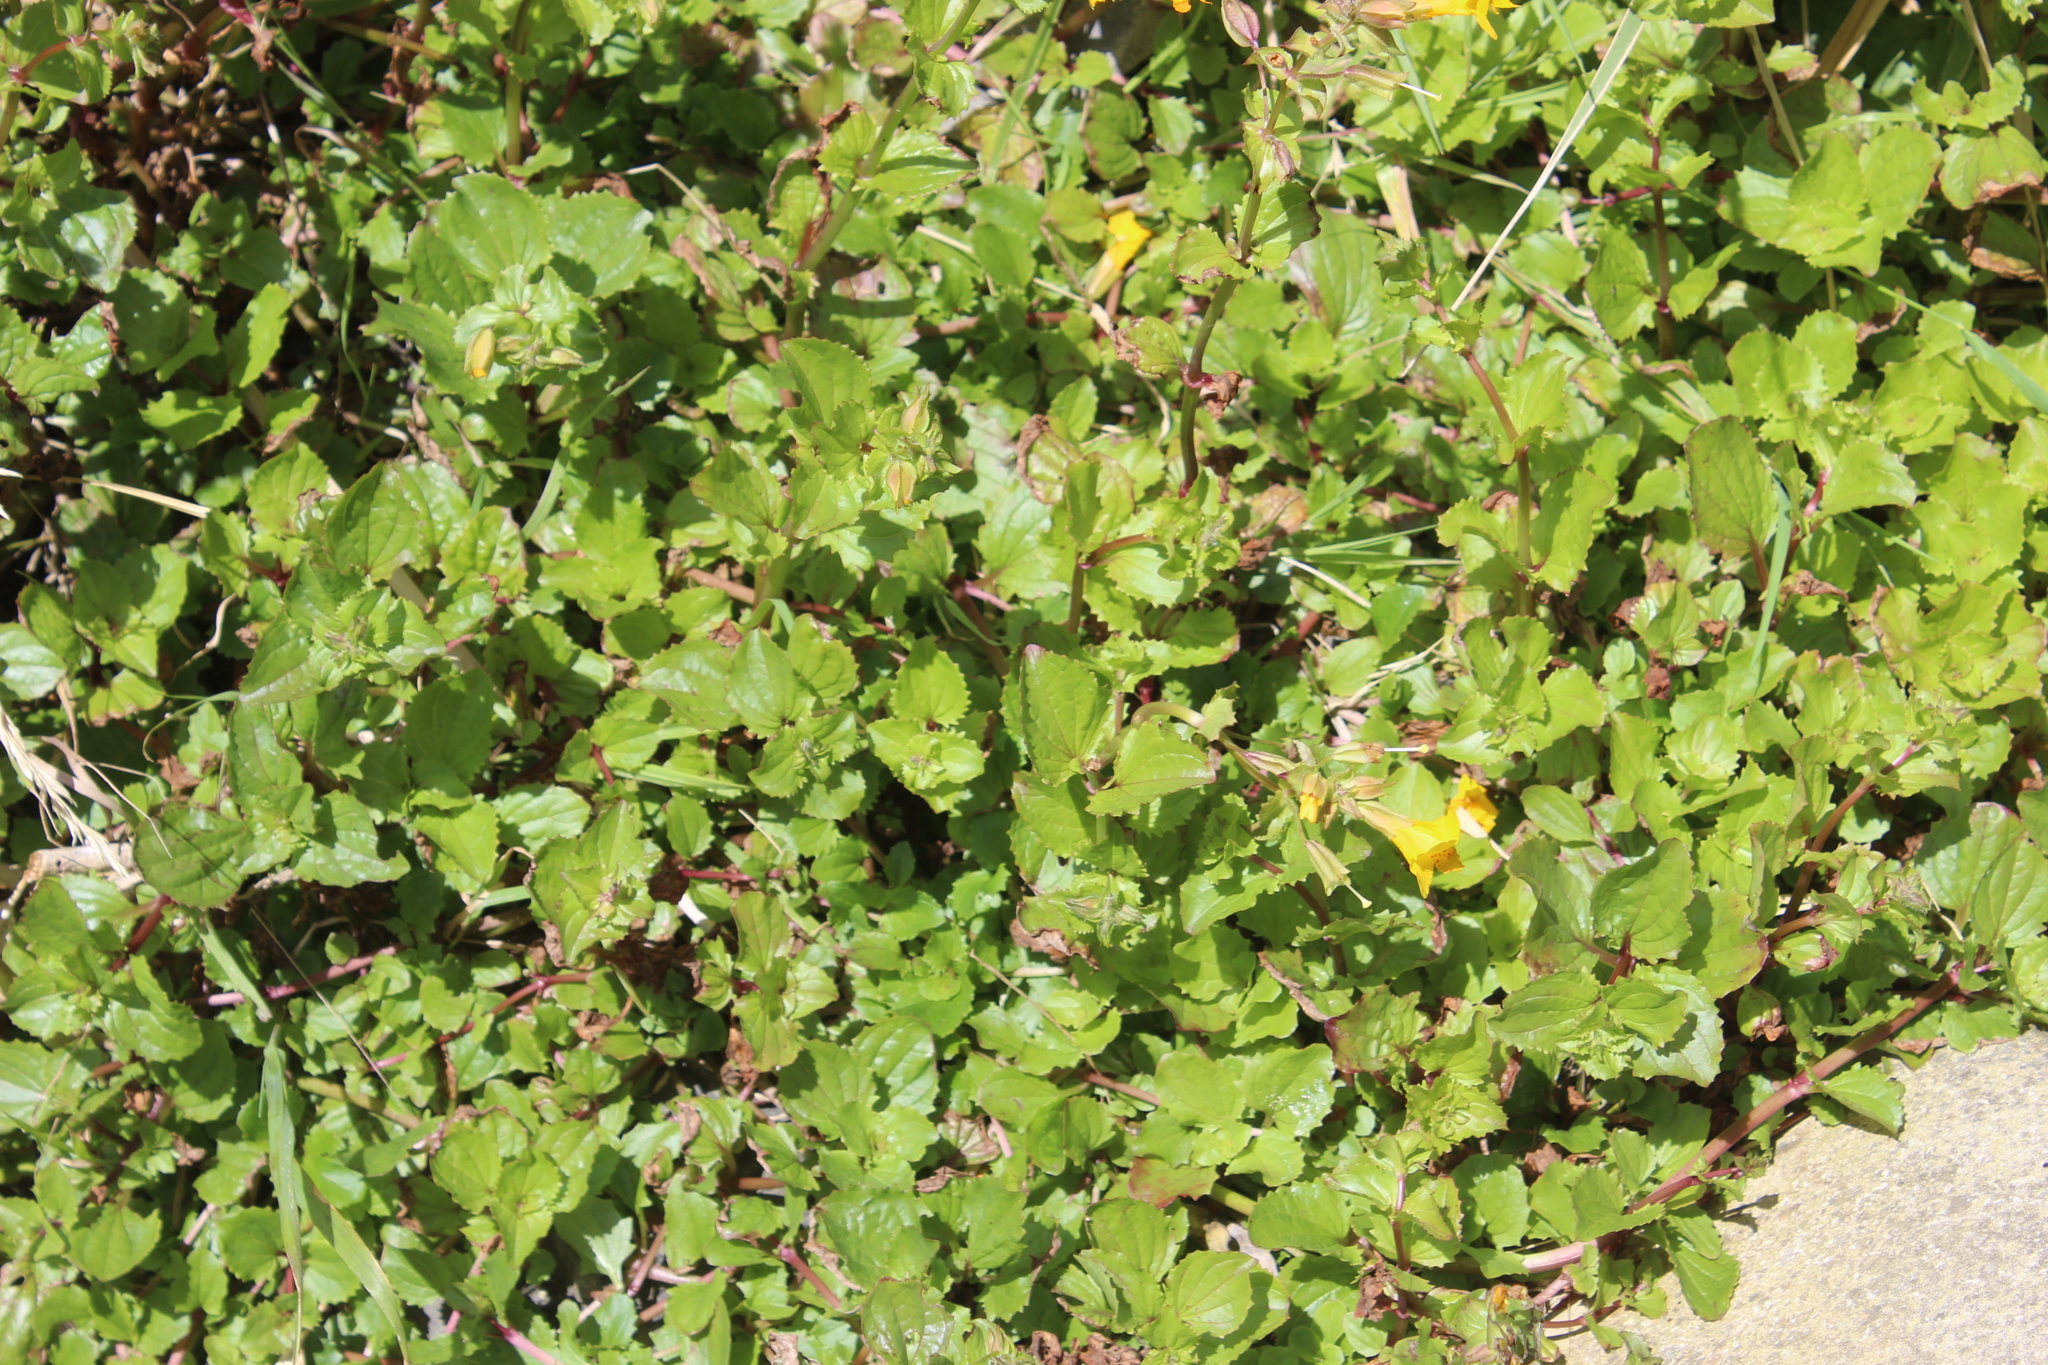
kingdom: Plantae
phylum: Tracheophyta
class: Magnoliopsida
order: Lamiales
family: Phrymaceae
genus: Erythranthe
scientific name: Erythranthe guttata
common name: Monkeyflower
